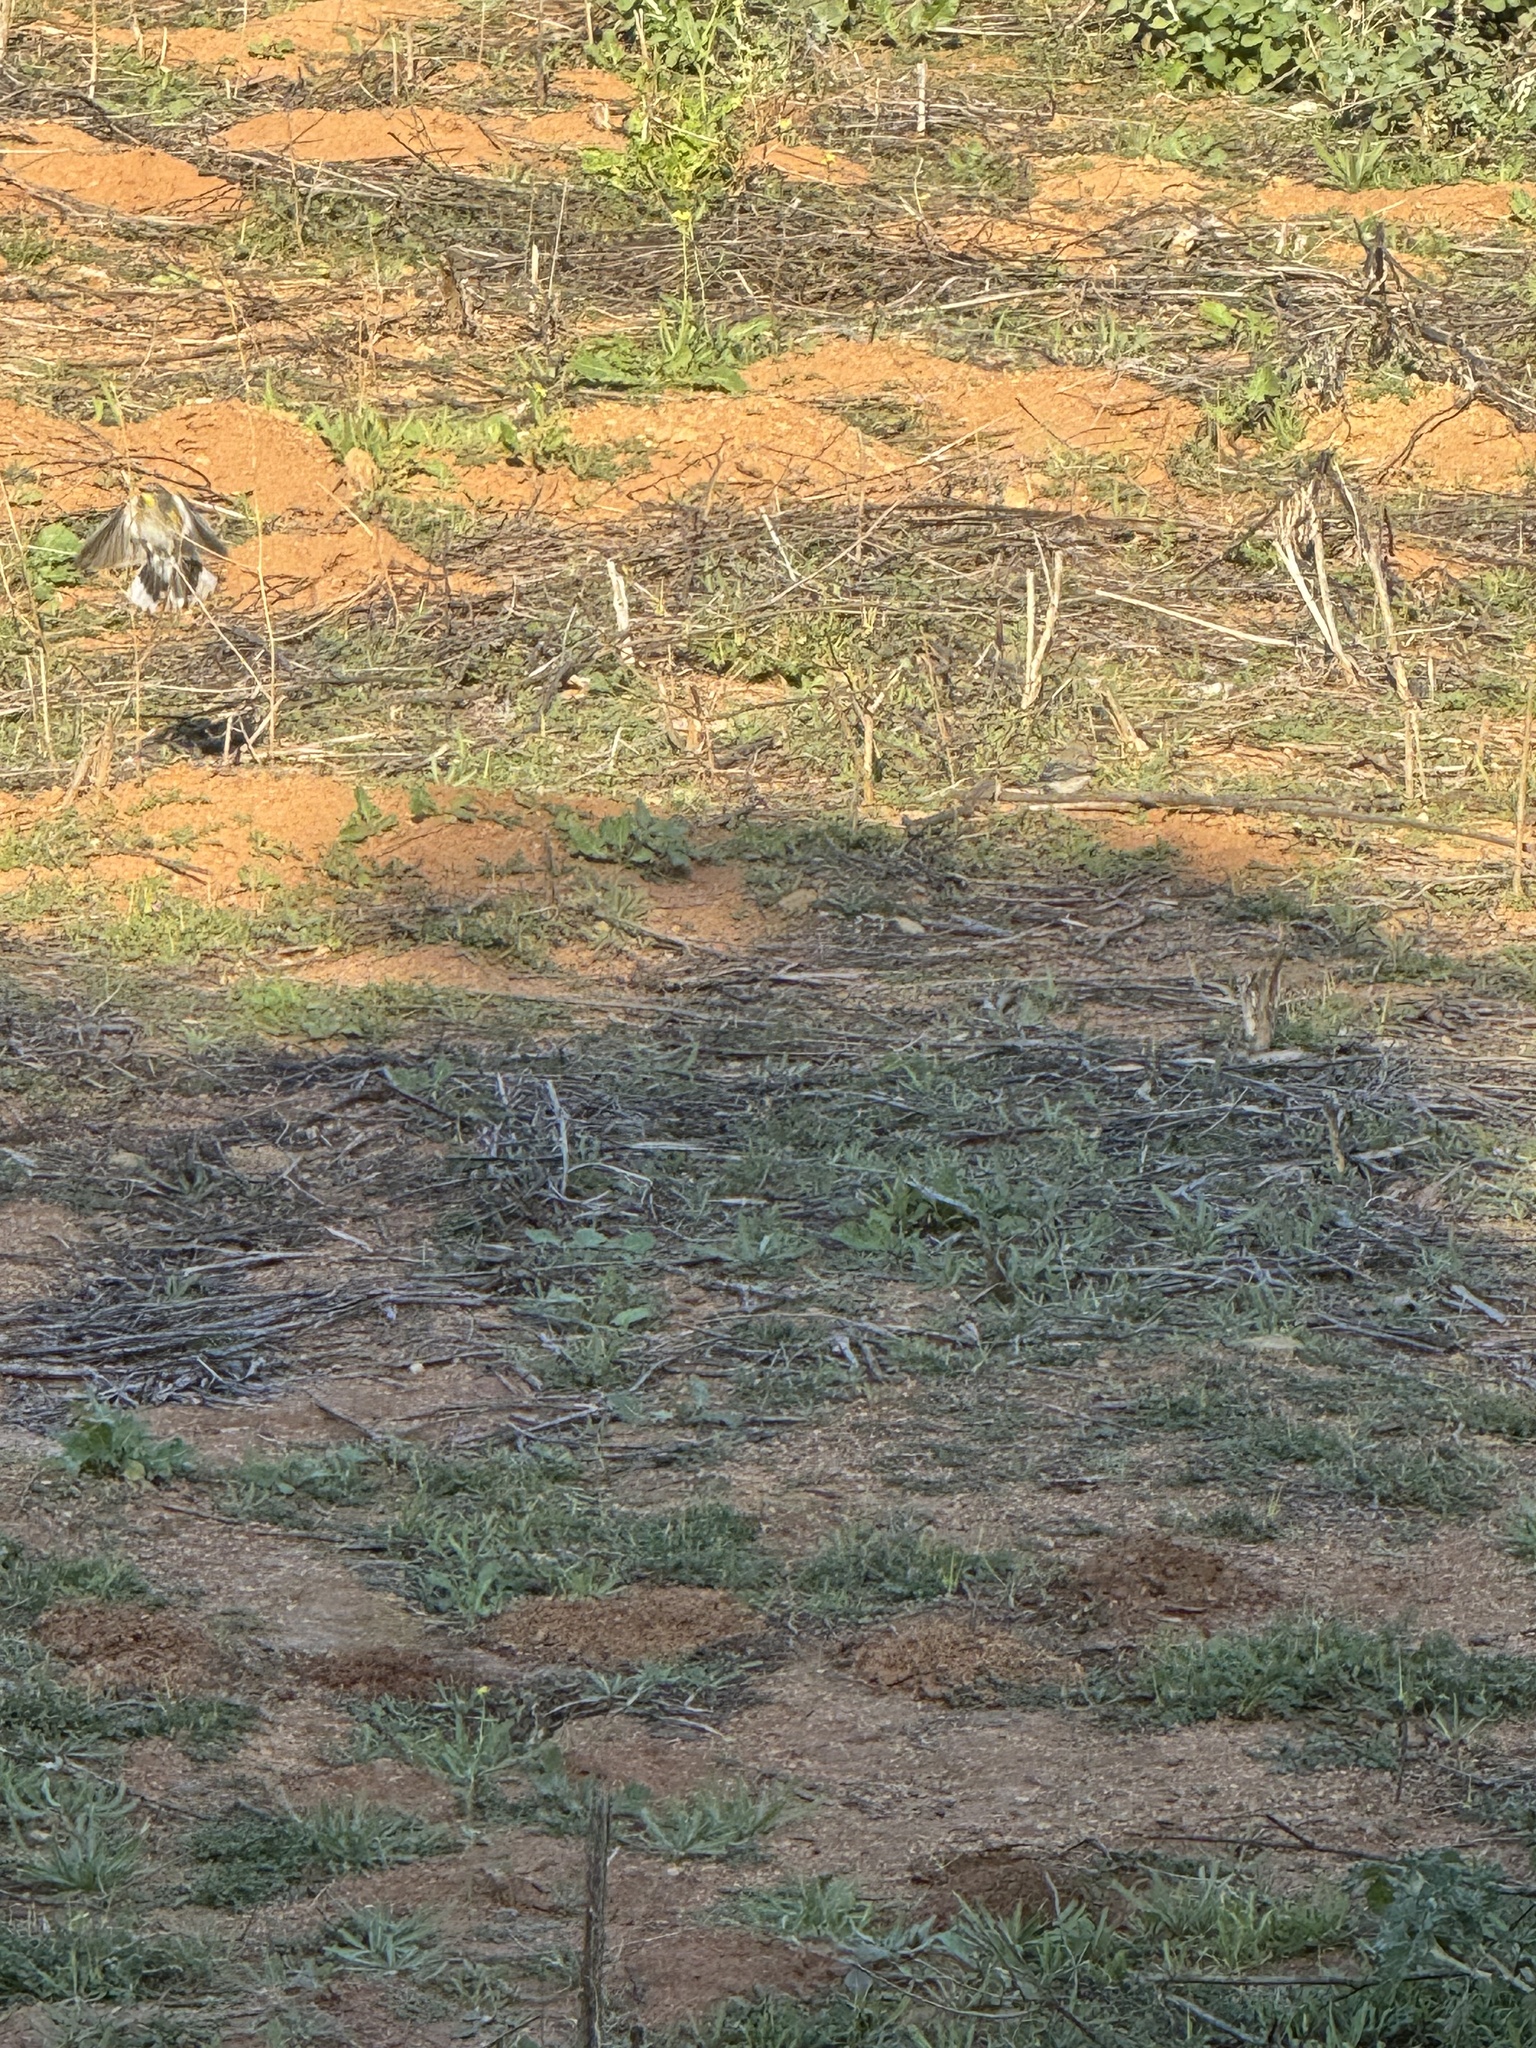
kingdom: Animalia
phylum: Chordata
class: Aves
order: Passeriformes
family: Parulidae
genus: Setophaga
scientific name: Setophaga coronata
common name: Myrtle warbler
